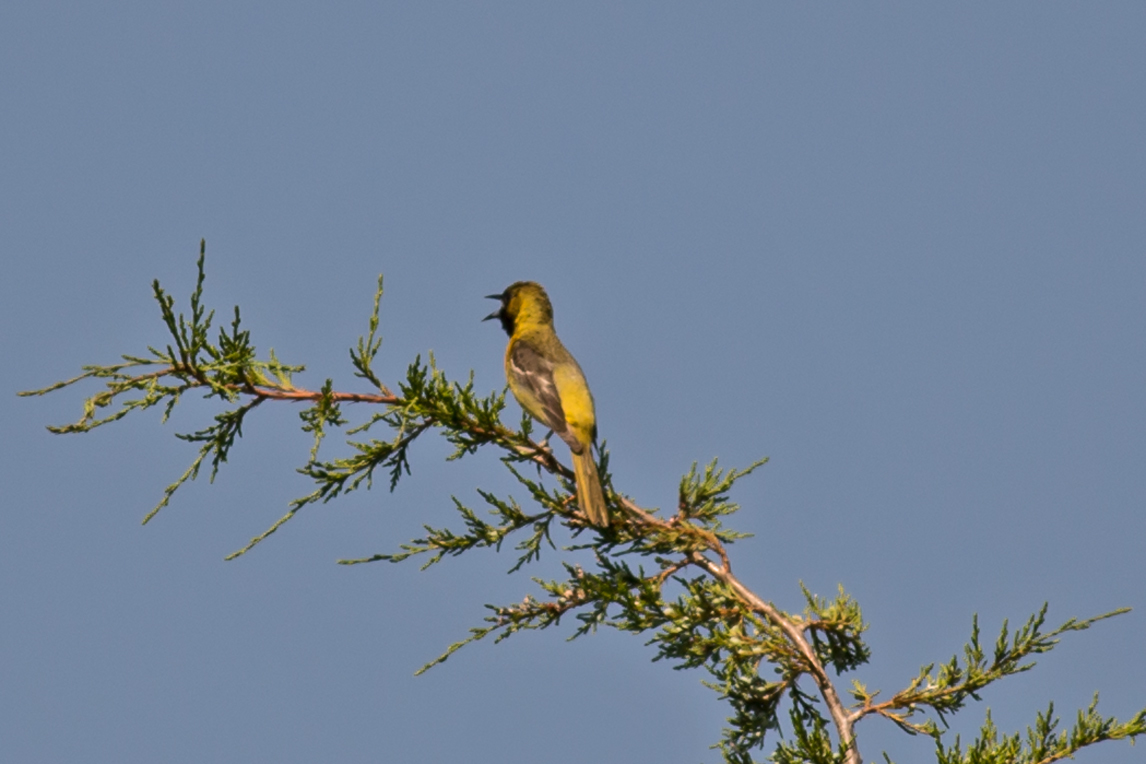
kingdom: Animalia
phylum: Chordata
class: Aves
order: Passeriformes
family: Icteridae
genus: Icterus
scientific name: Icterus spurius
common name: Orchard oriole
